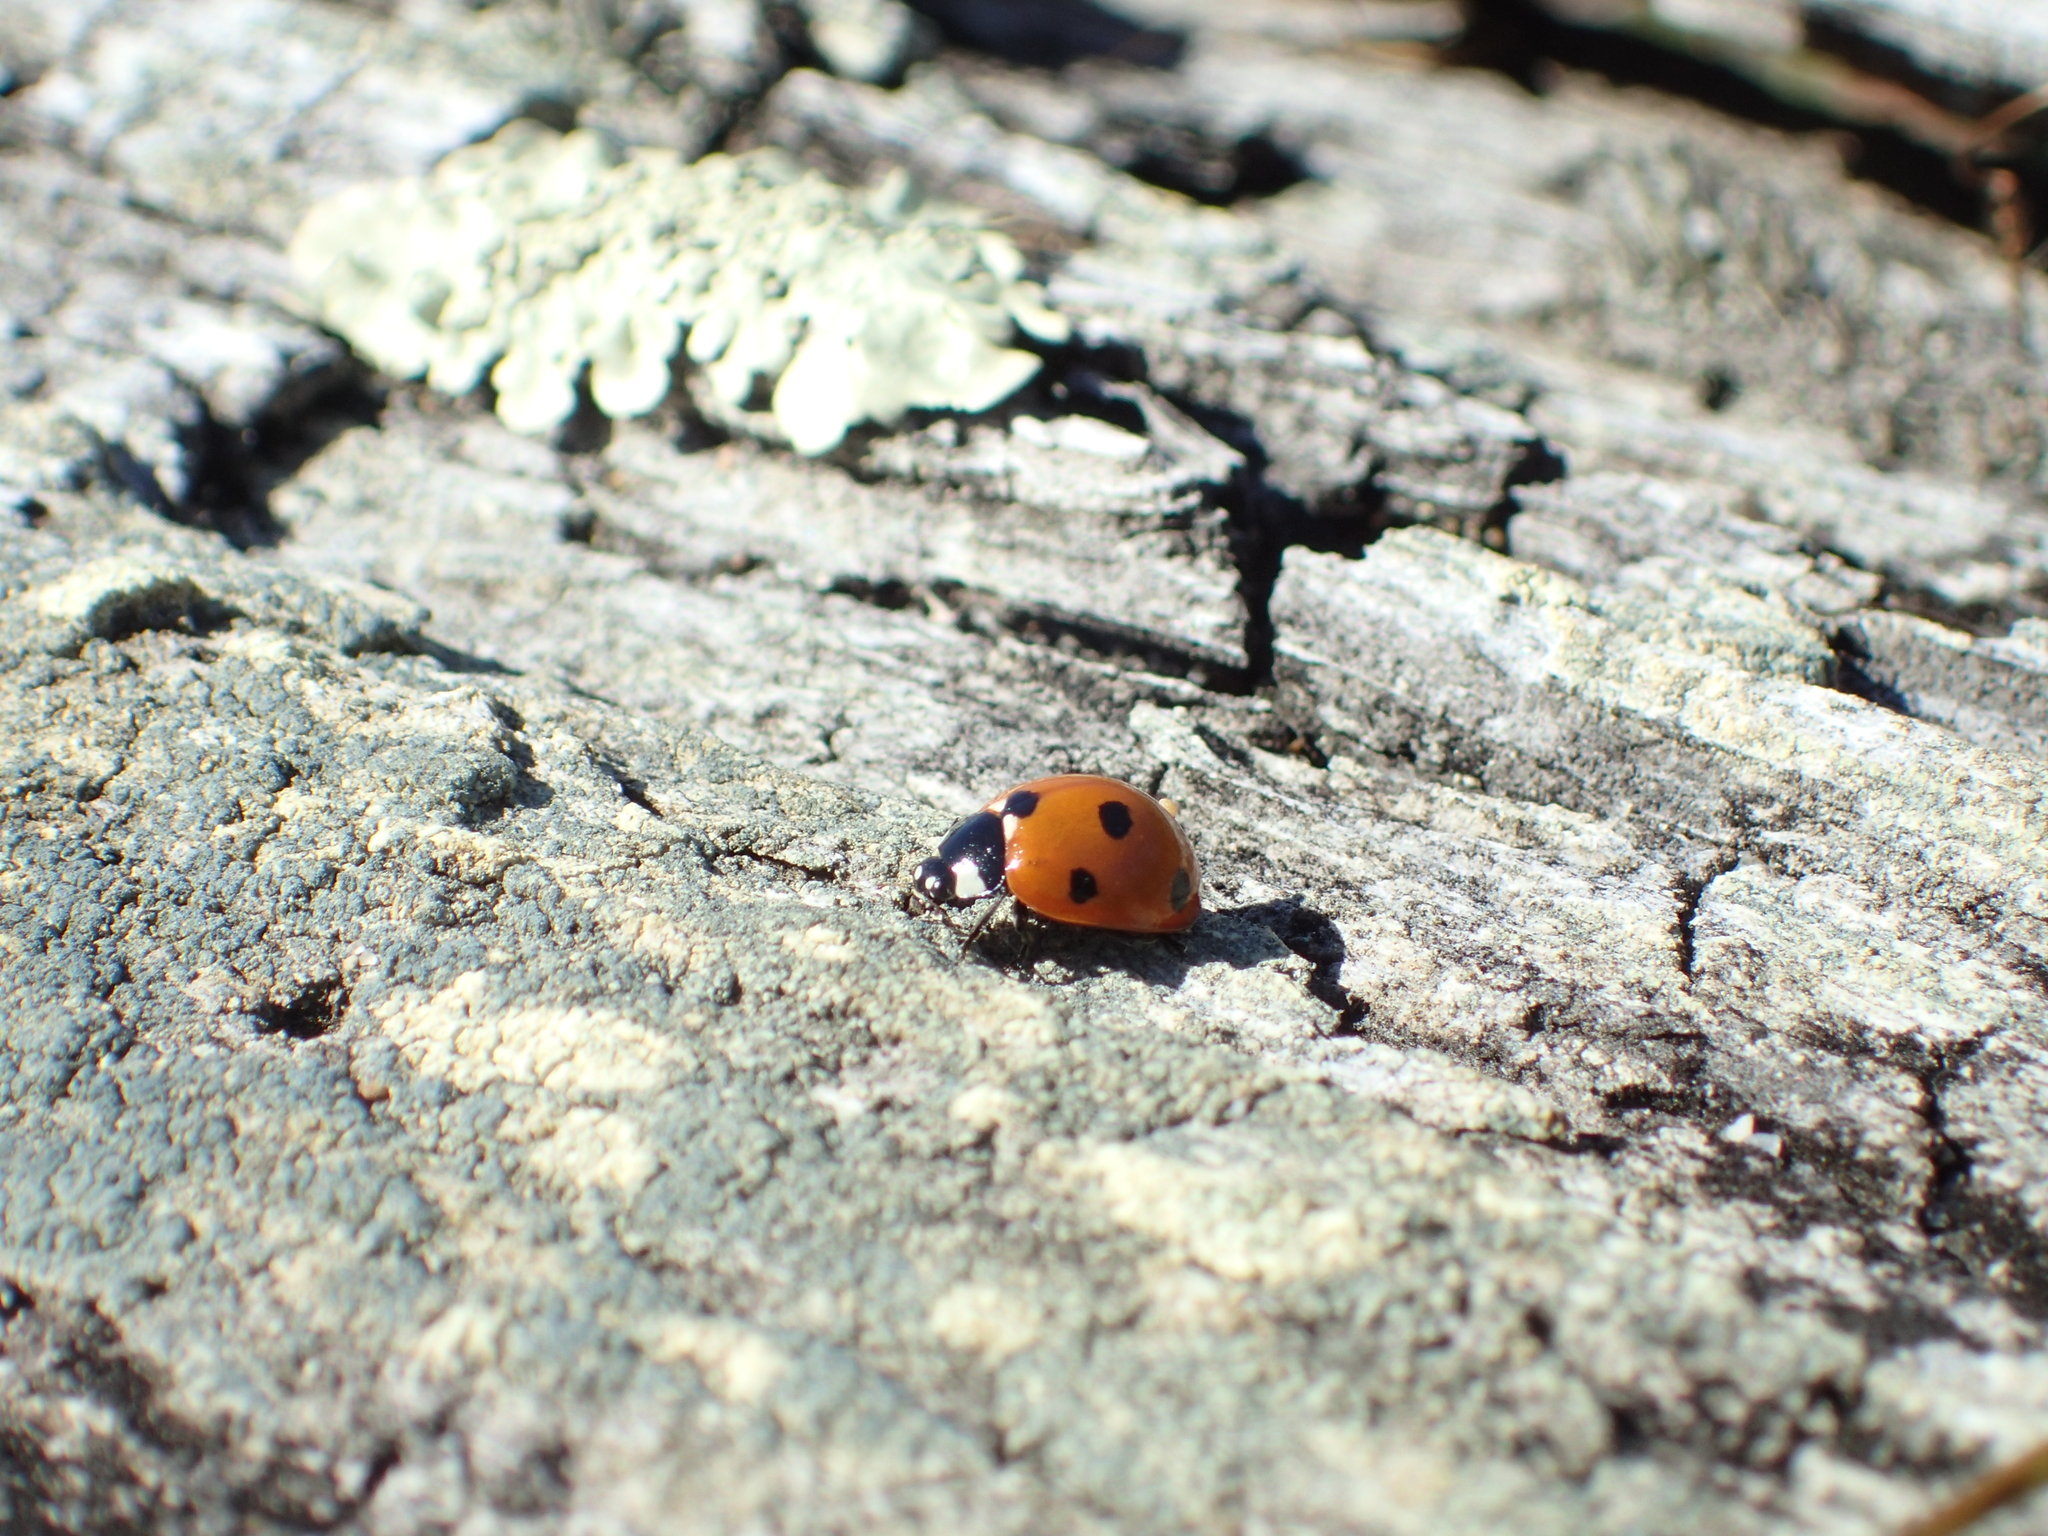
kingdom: Animalia
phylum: Arthropoda
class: Insecta
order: Coleoptera
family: Coccinellidae
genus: Coccinella
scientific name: Coccinella septempunctata
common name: Sevenspotted lady beetle
